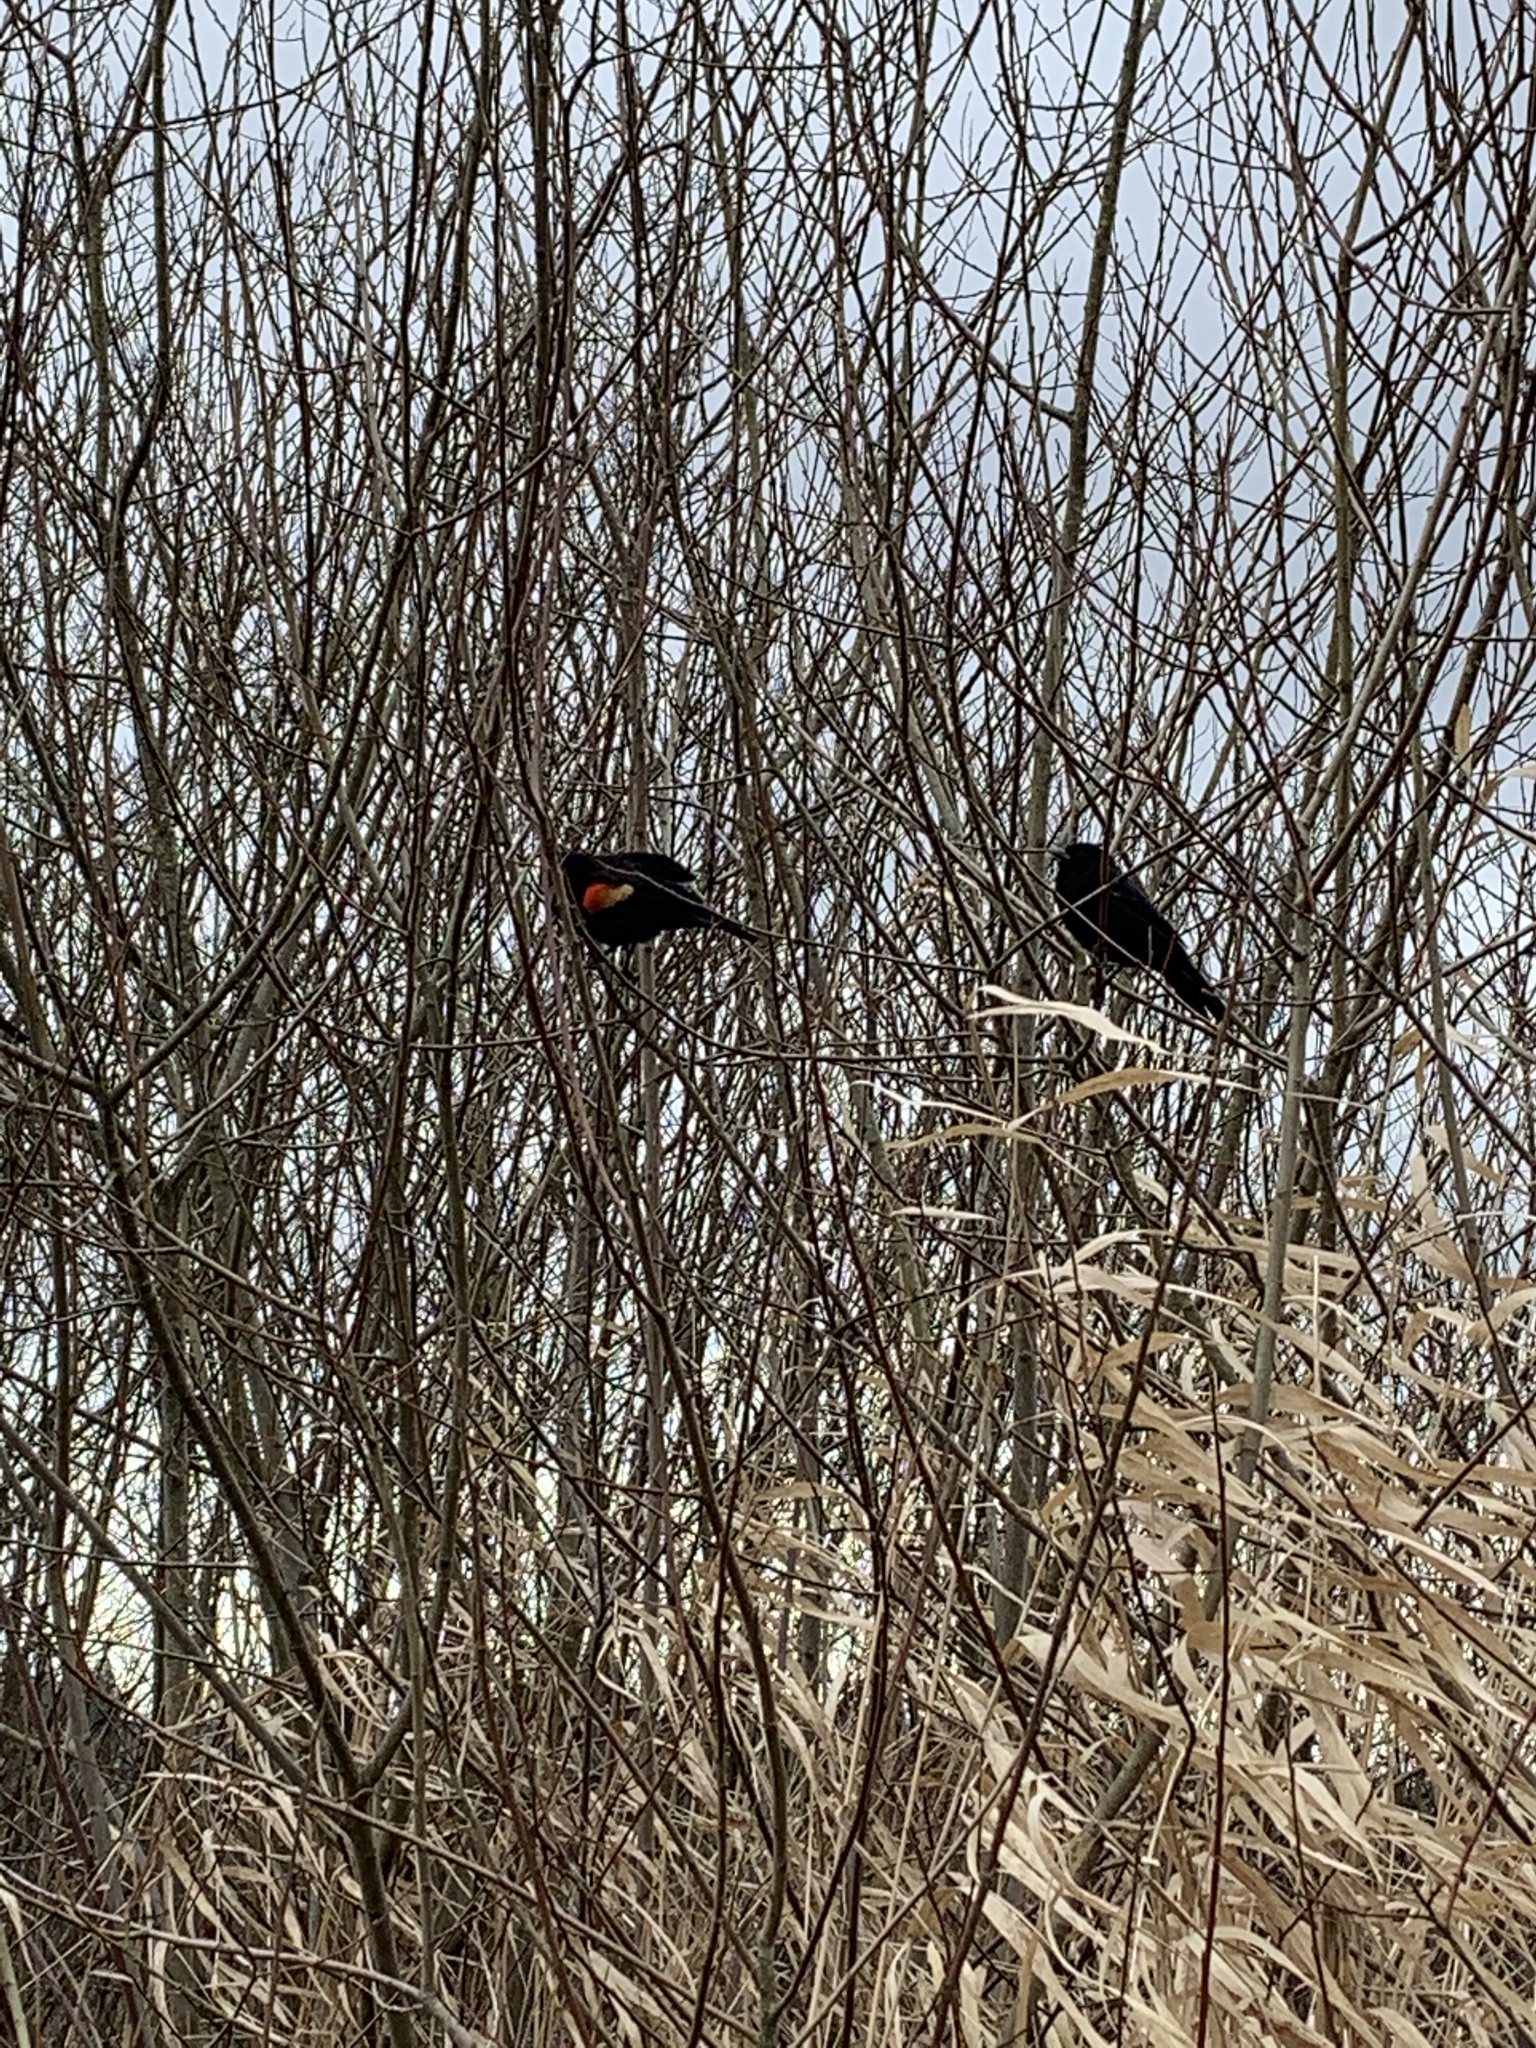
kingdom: Animalia
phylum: Chordata
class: Aves
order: Passeriformes
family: Icteridae
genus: Agelaius
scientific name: Agelaius phoeniceus
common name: Red-winged blackbird
